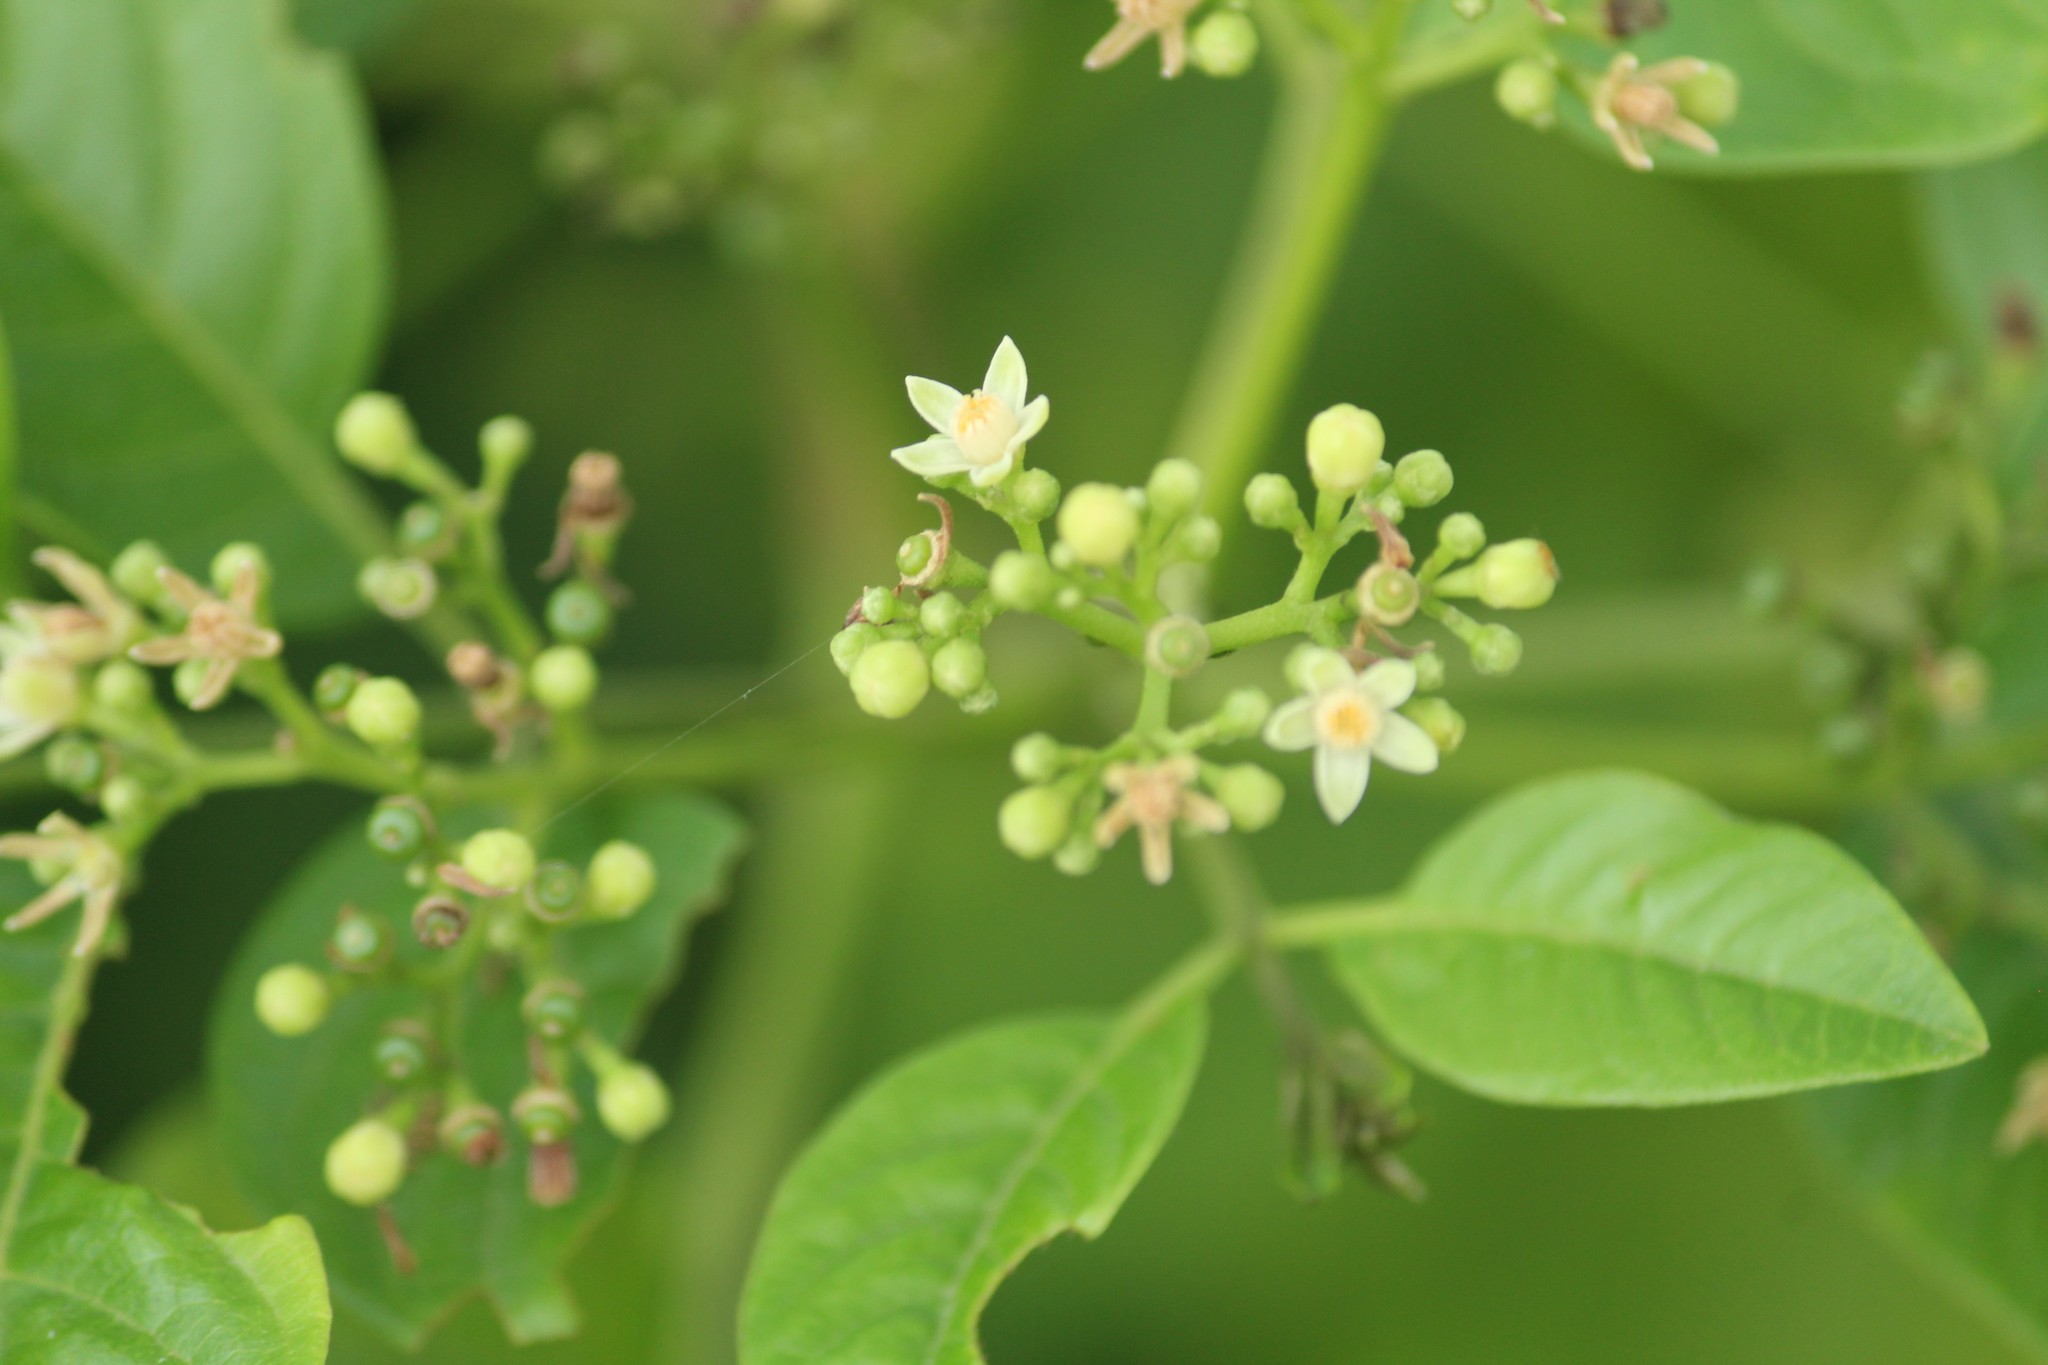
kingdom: Plantae
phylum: Tracheophyta
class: Magnoliopsida
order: Sapindales
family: Meliaceae
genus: Cipadessa
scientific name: Cipadessa baccifera
